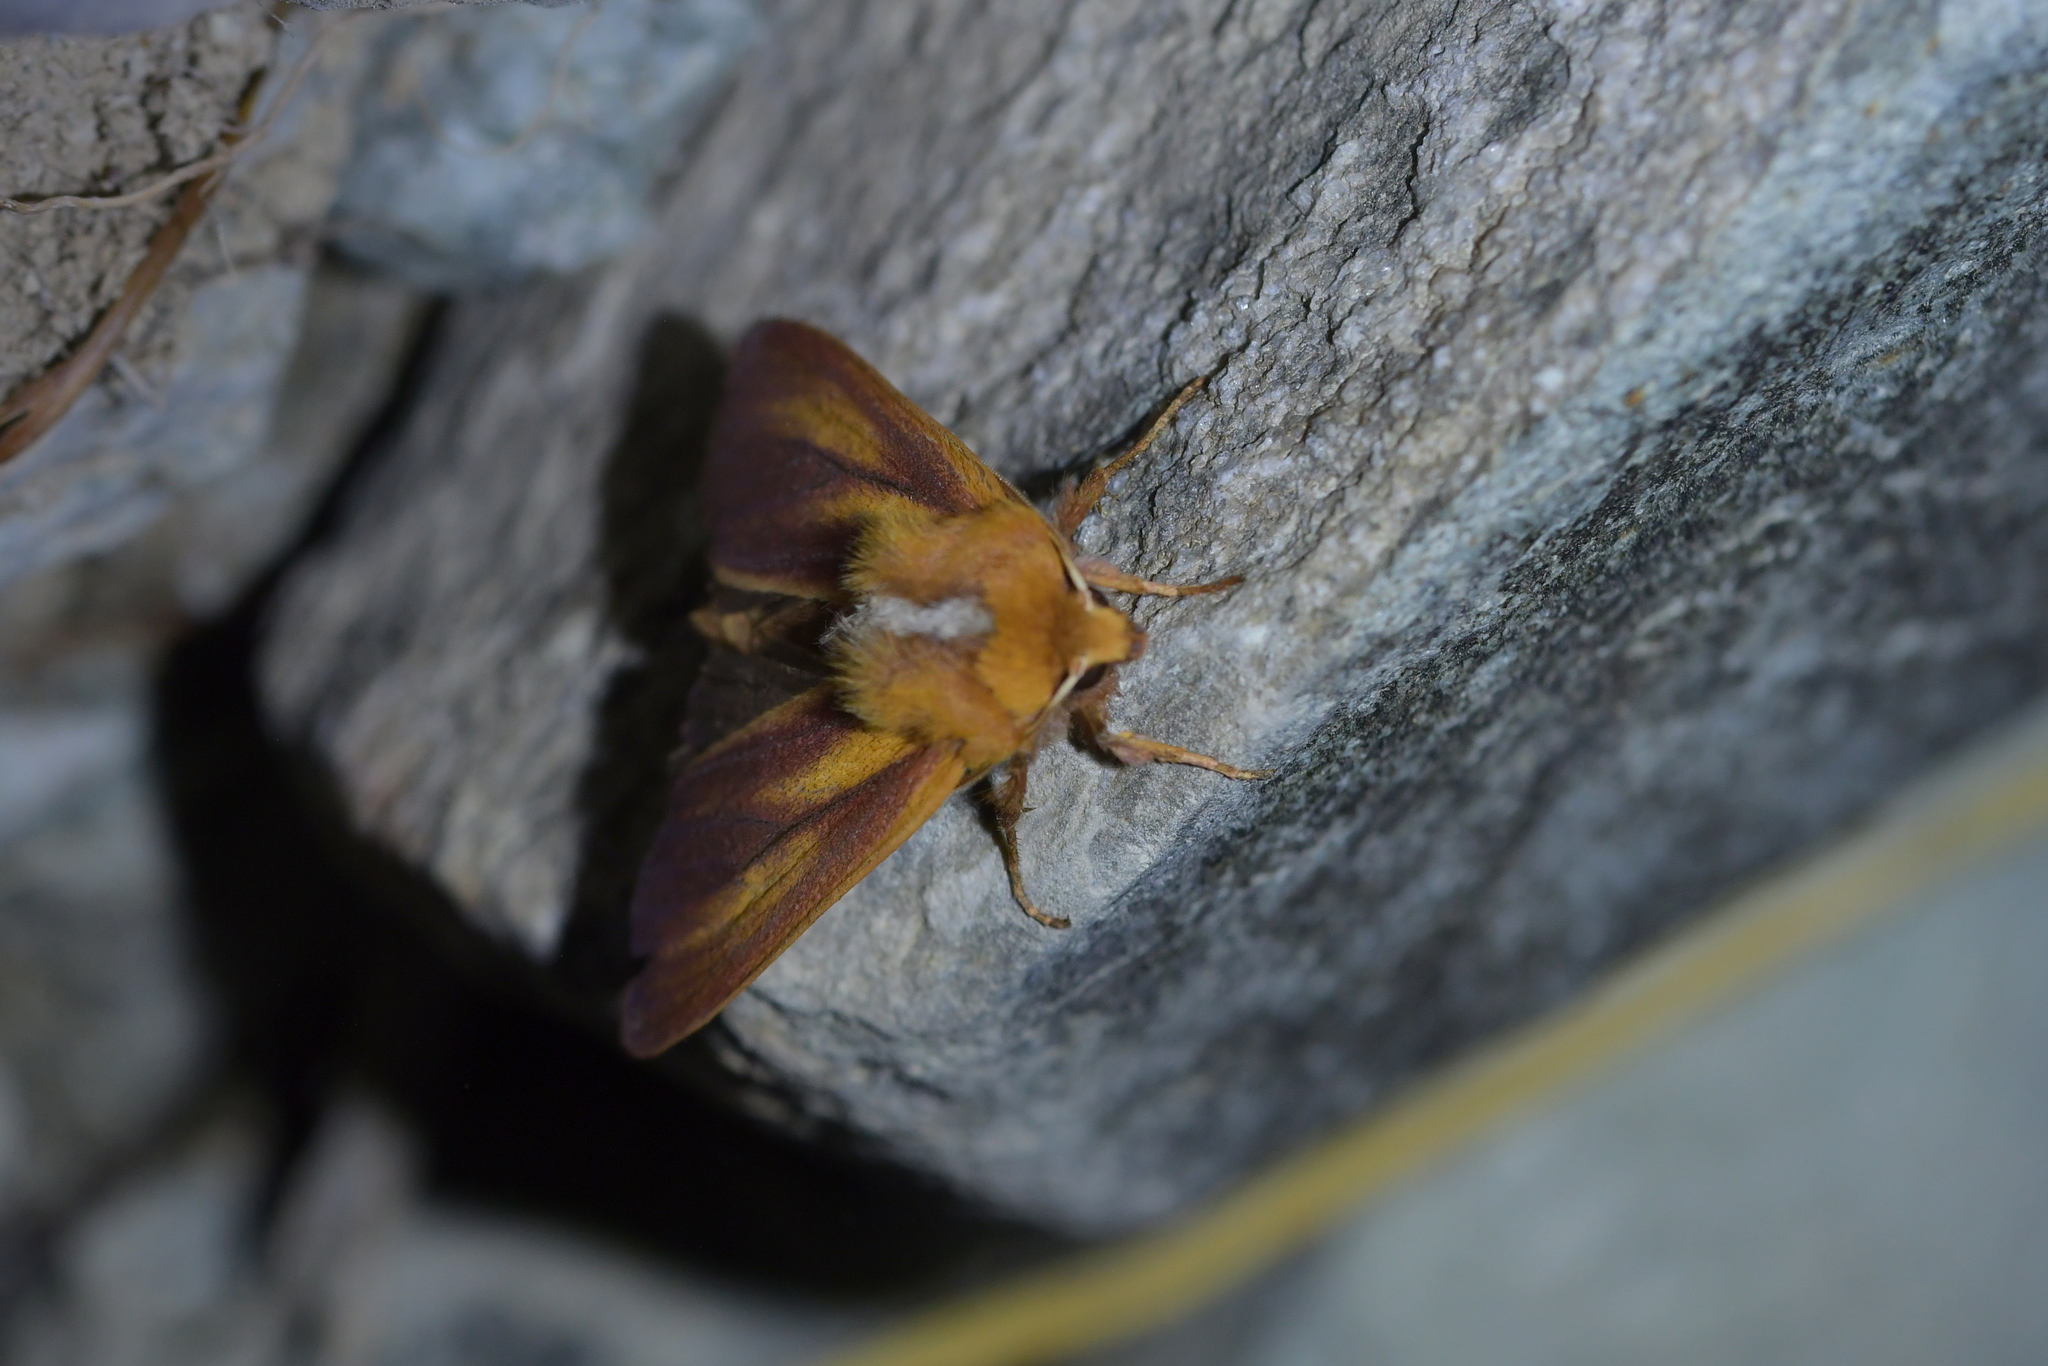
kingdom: Animalia
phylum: Arthropoda
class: Insecta
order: Lepidoptera
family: Noctuidae
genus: Ichneutica
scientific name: Ichneutica
